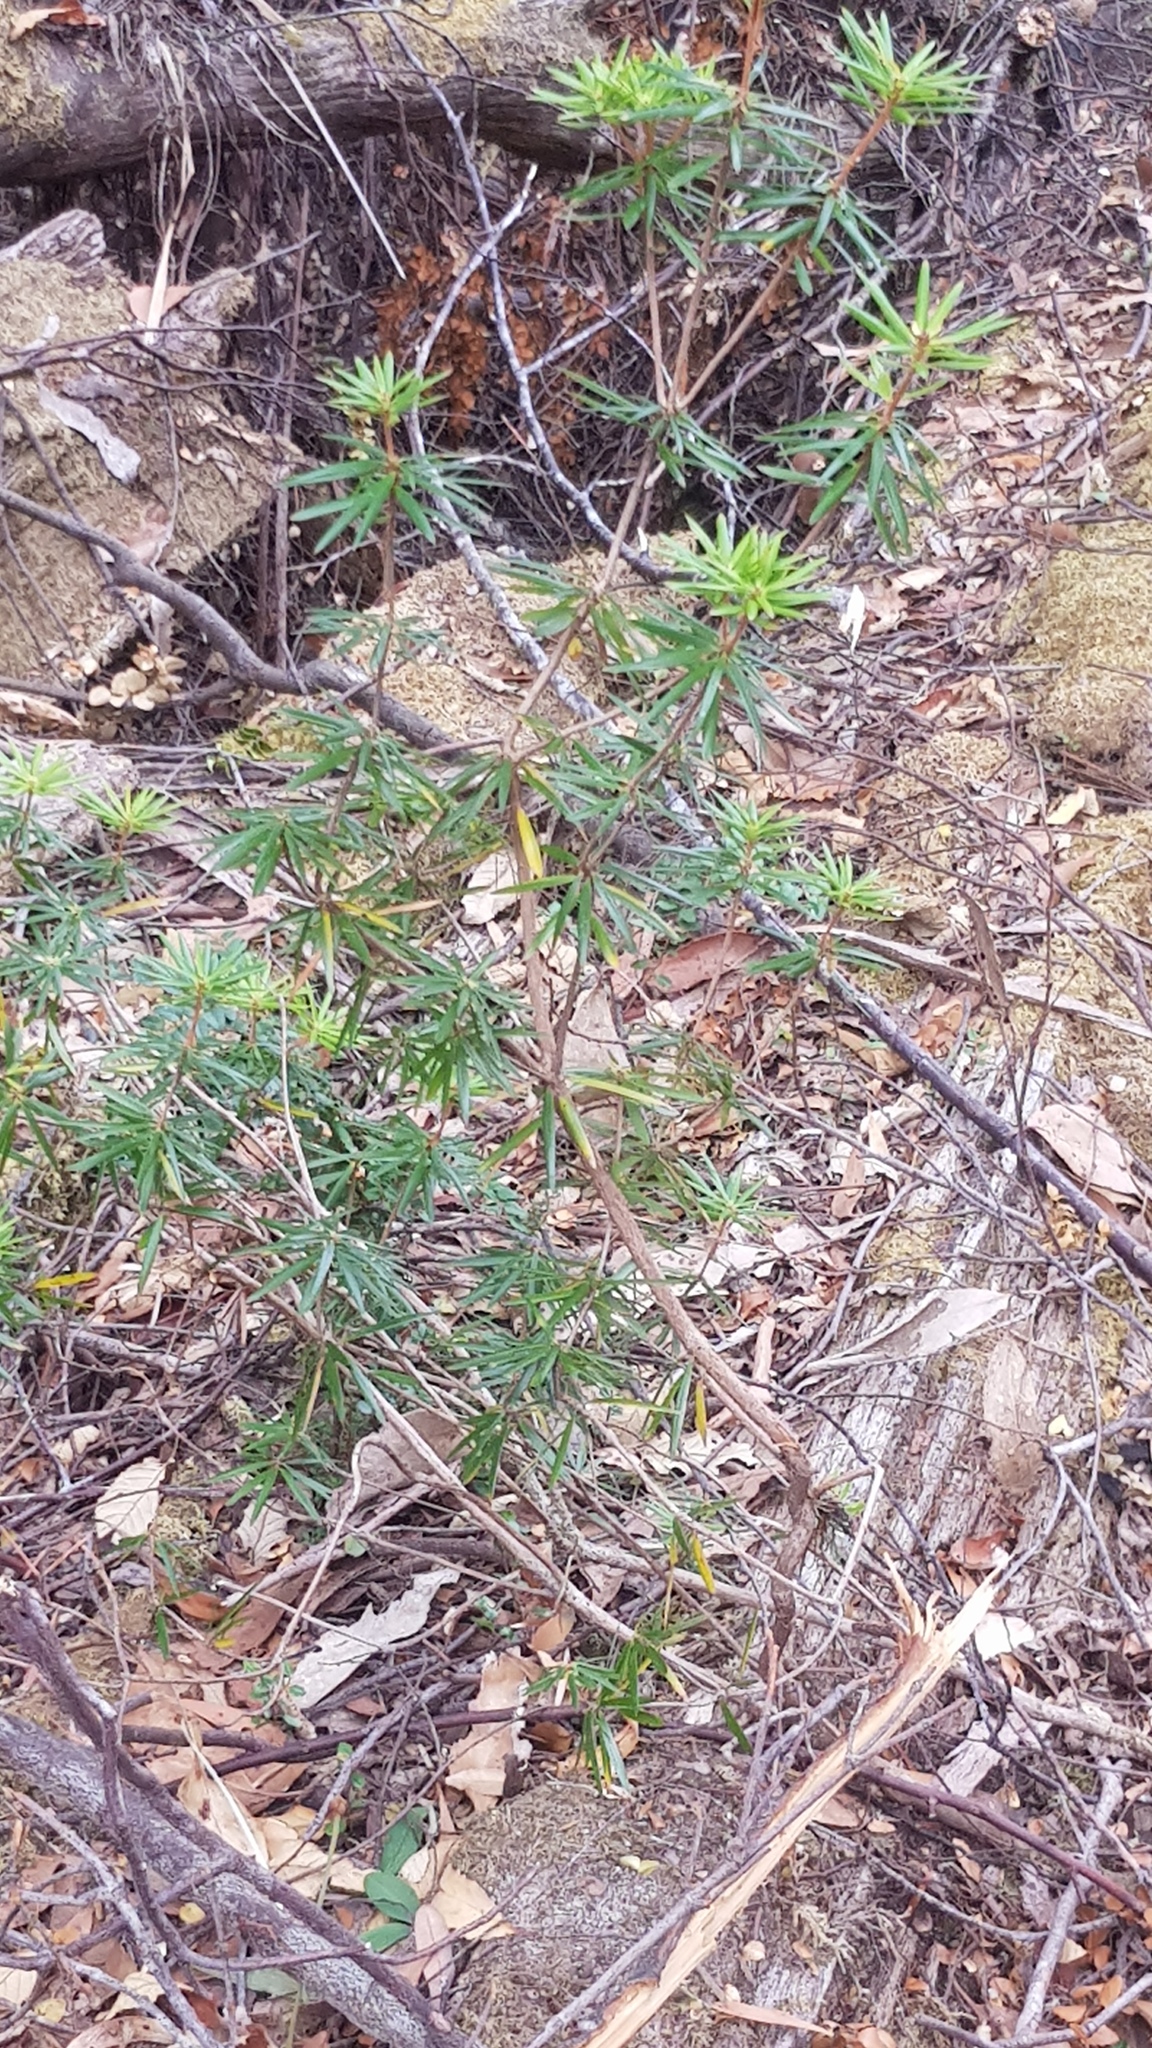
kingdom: Plantae
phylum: Tracheophyta
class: Magnoliopsida
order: Ericales
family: Ericaceae
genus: Cyathodes
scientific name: Cyathodes glauca
